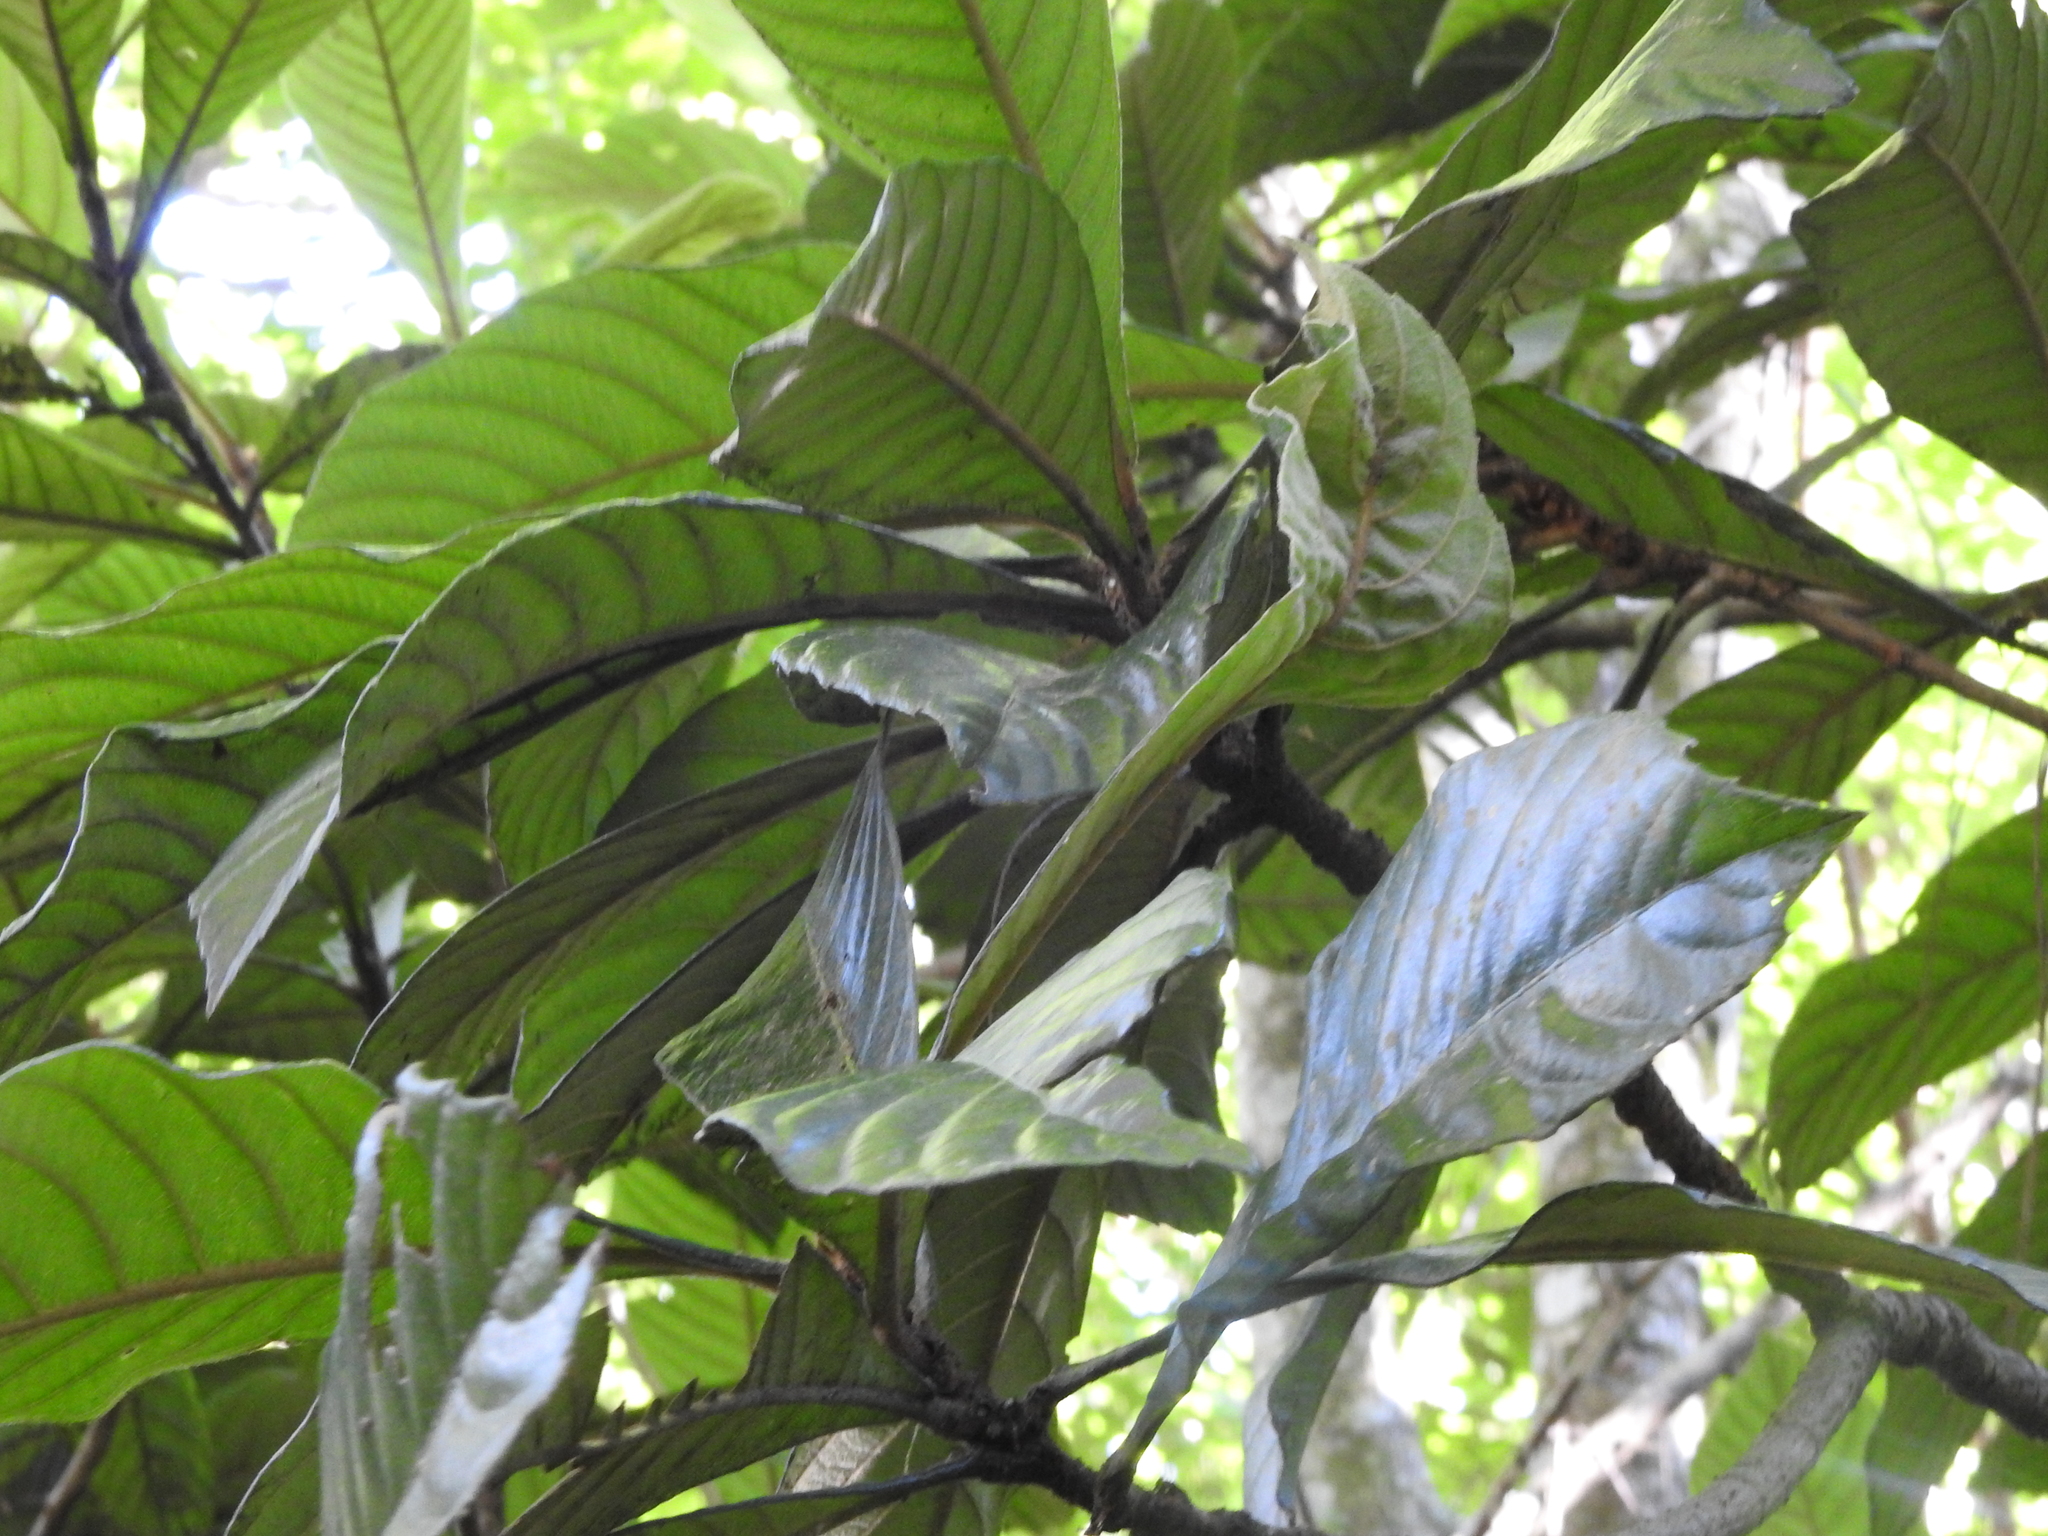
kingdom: Plantae
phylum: Tracheophyta
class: Magnoliopsida
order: Rosales
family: Rosaceae
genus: Rhaphiolepis
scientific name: Rhaphiolepis bibas
